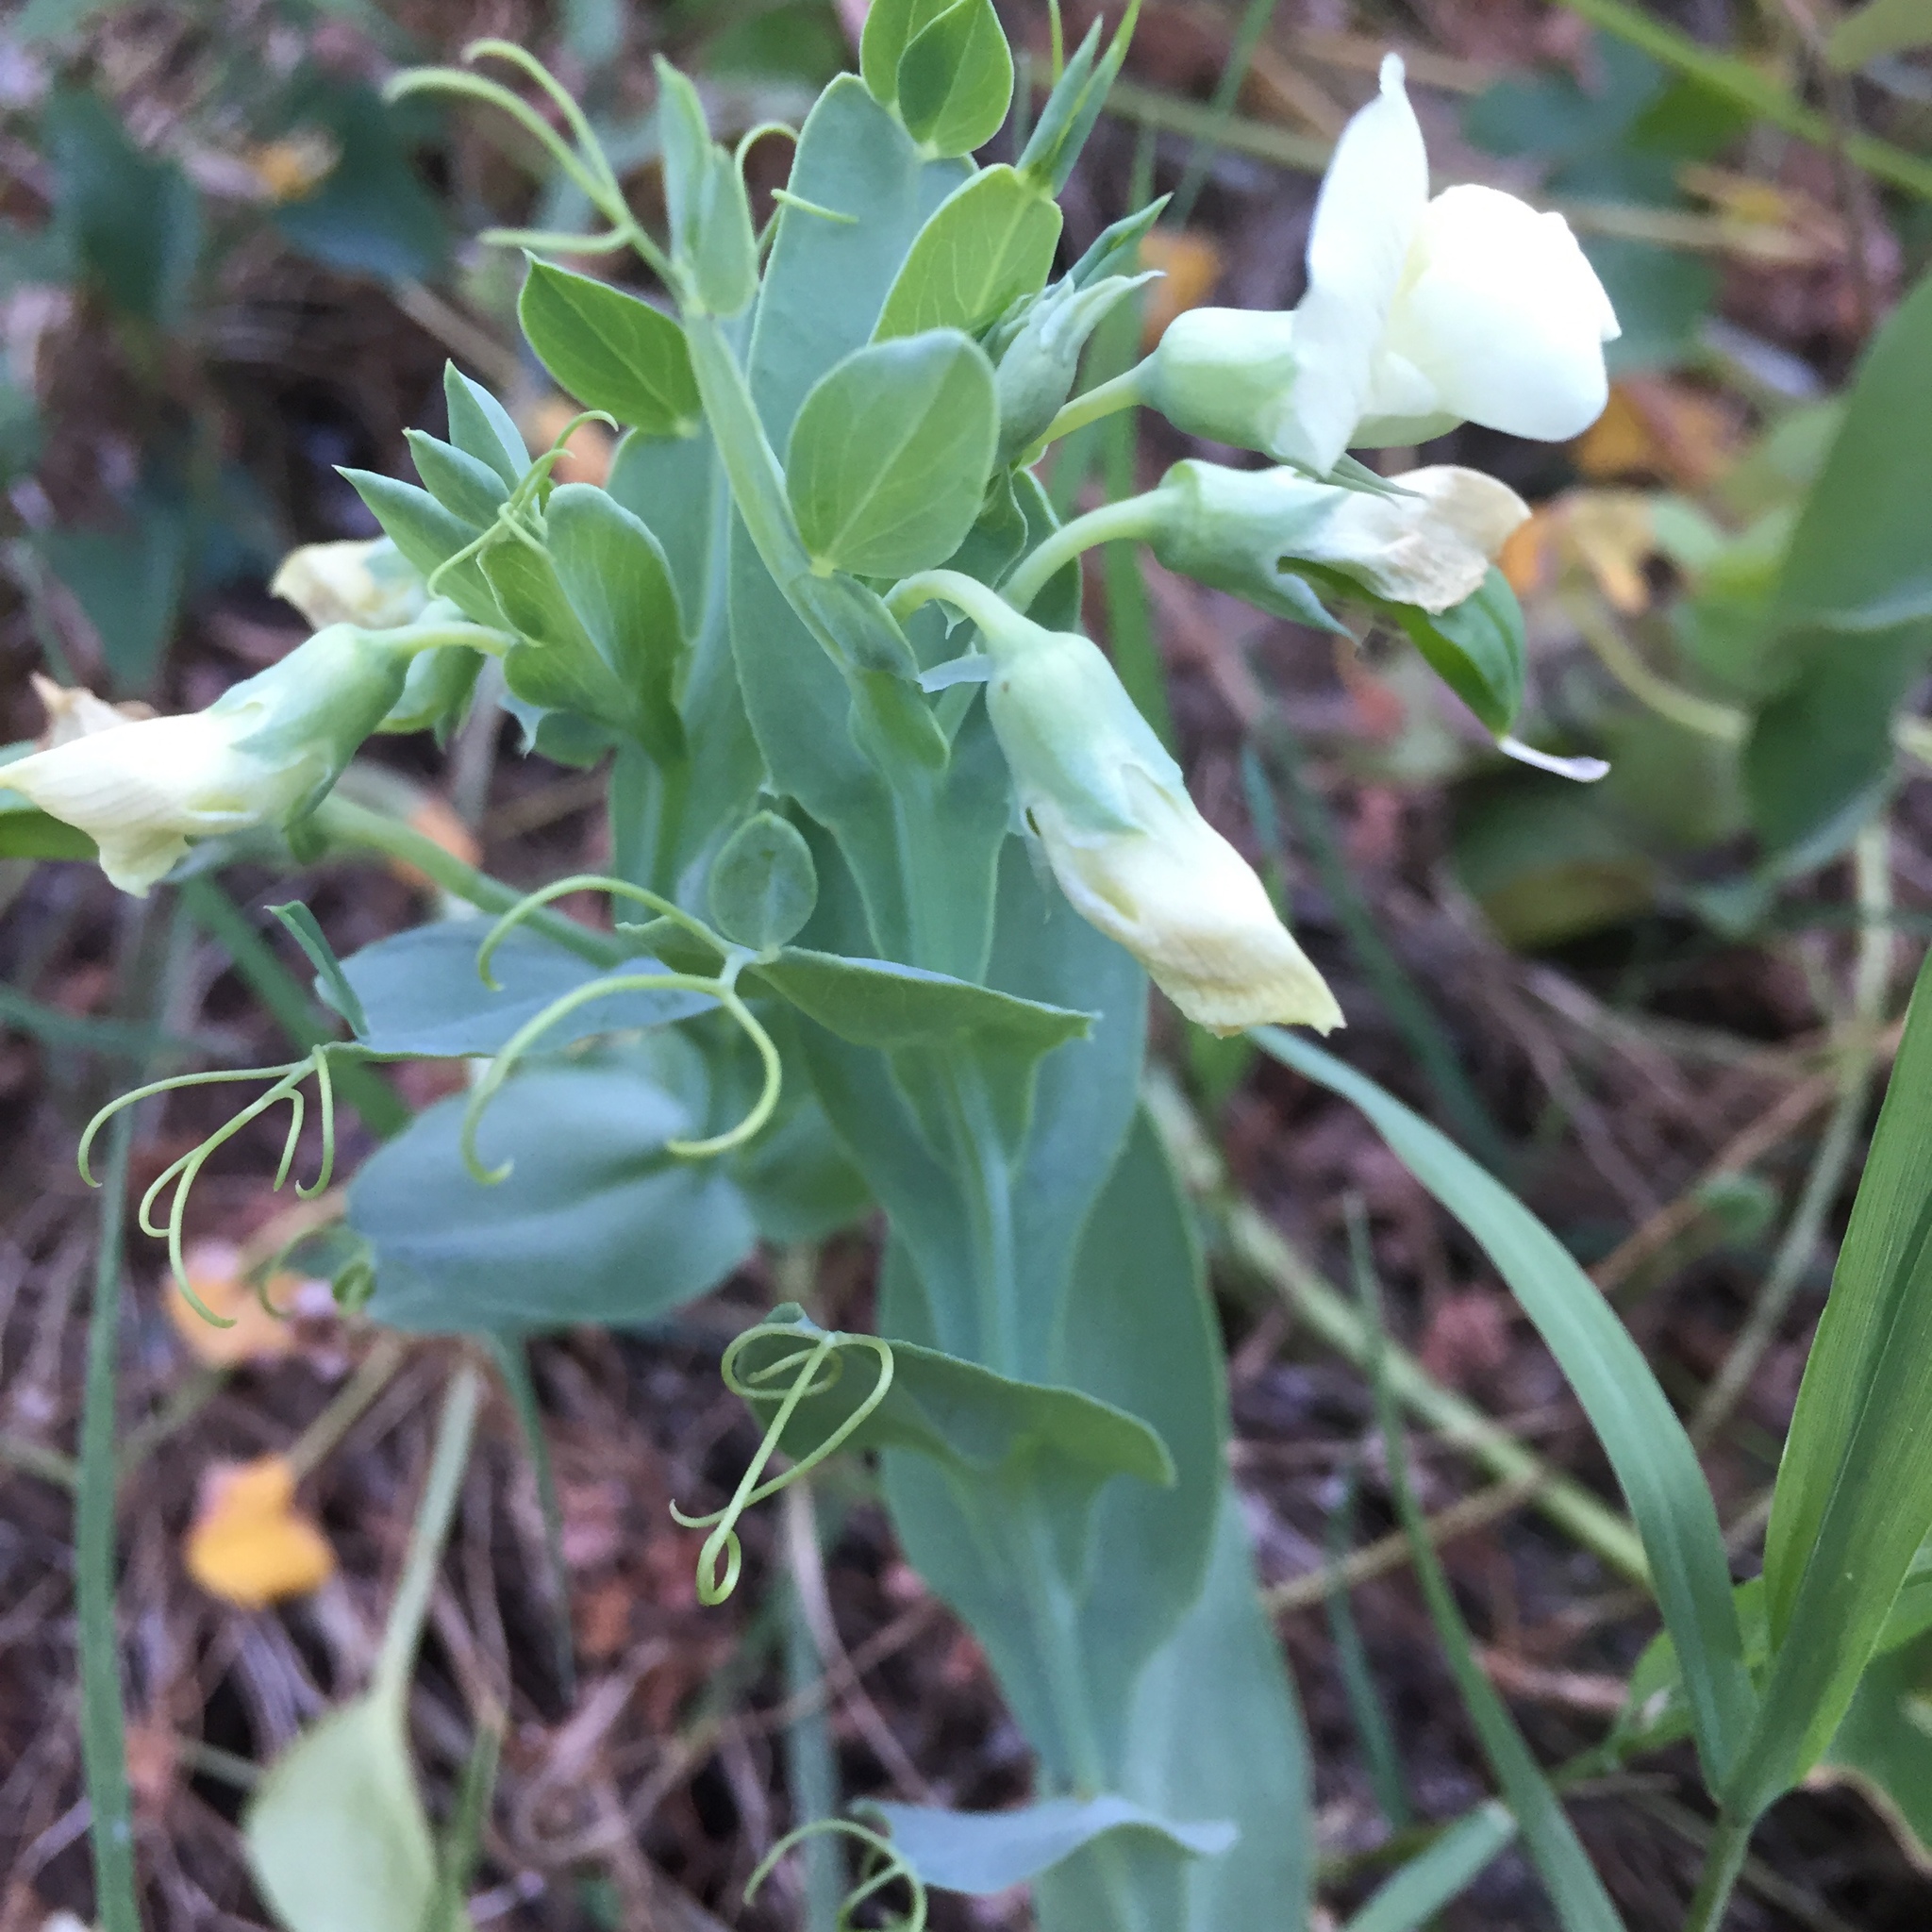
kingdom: Plantae
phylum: Tracheophyta
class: Magnoliopsida
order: Fabales
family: Fabaceae
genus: Lathyrus
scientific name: Lathyrus ochrus
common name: Winged vetchling
